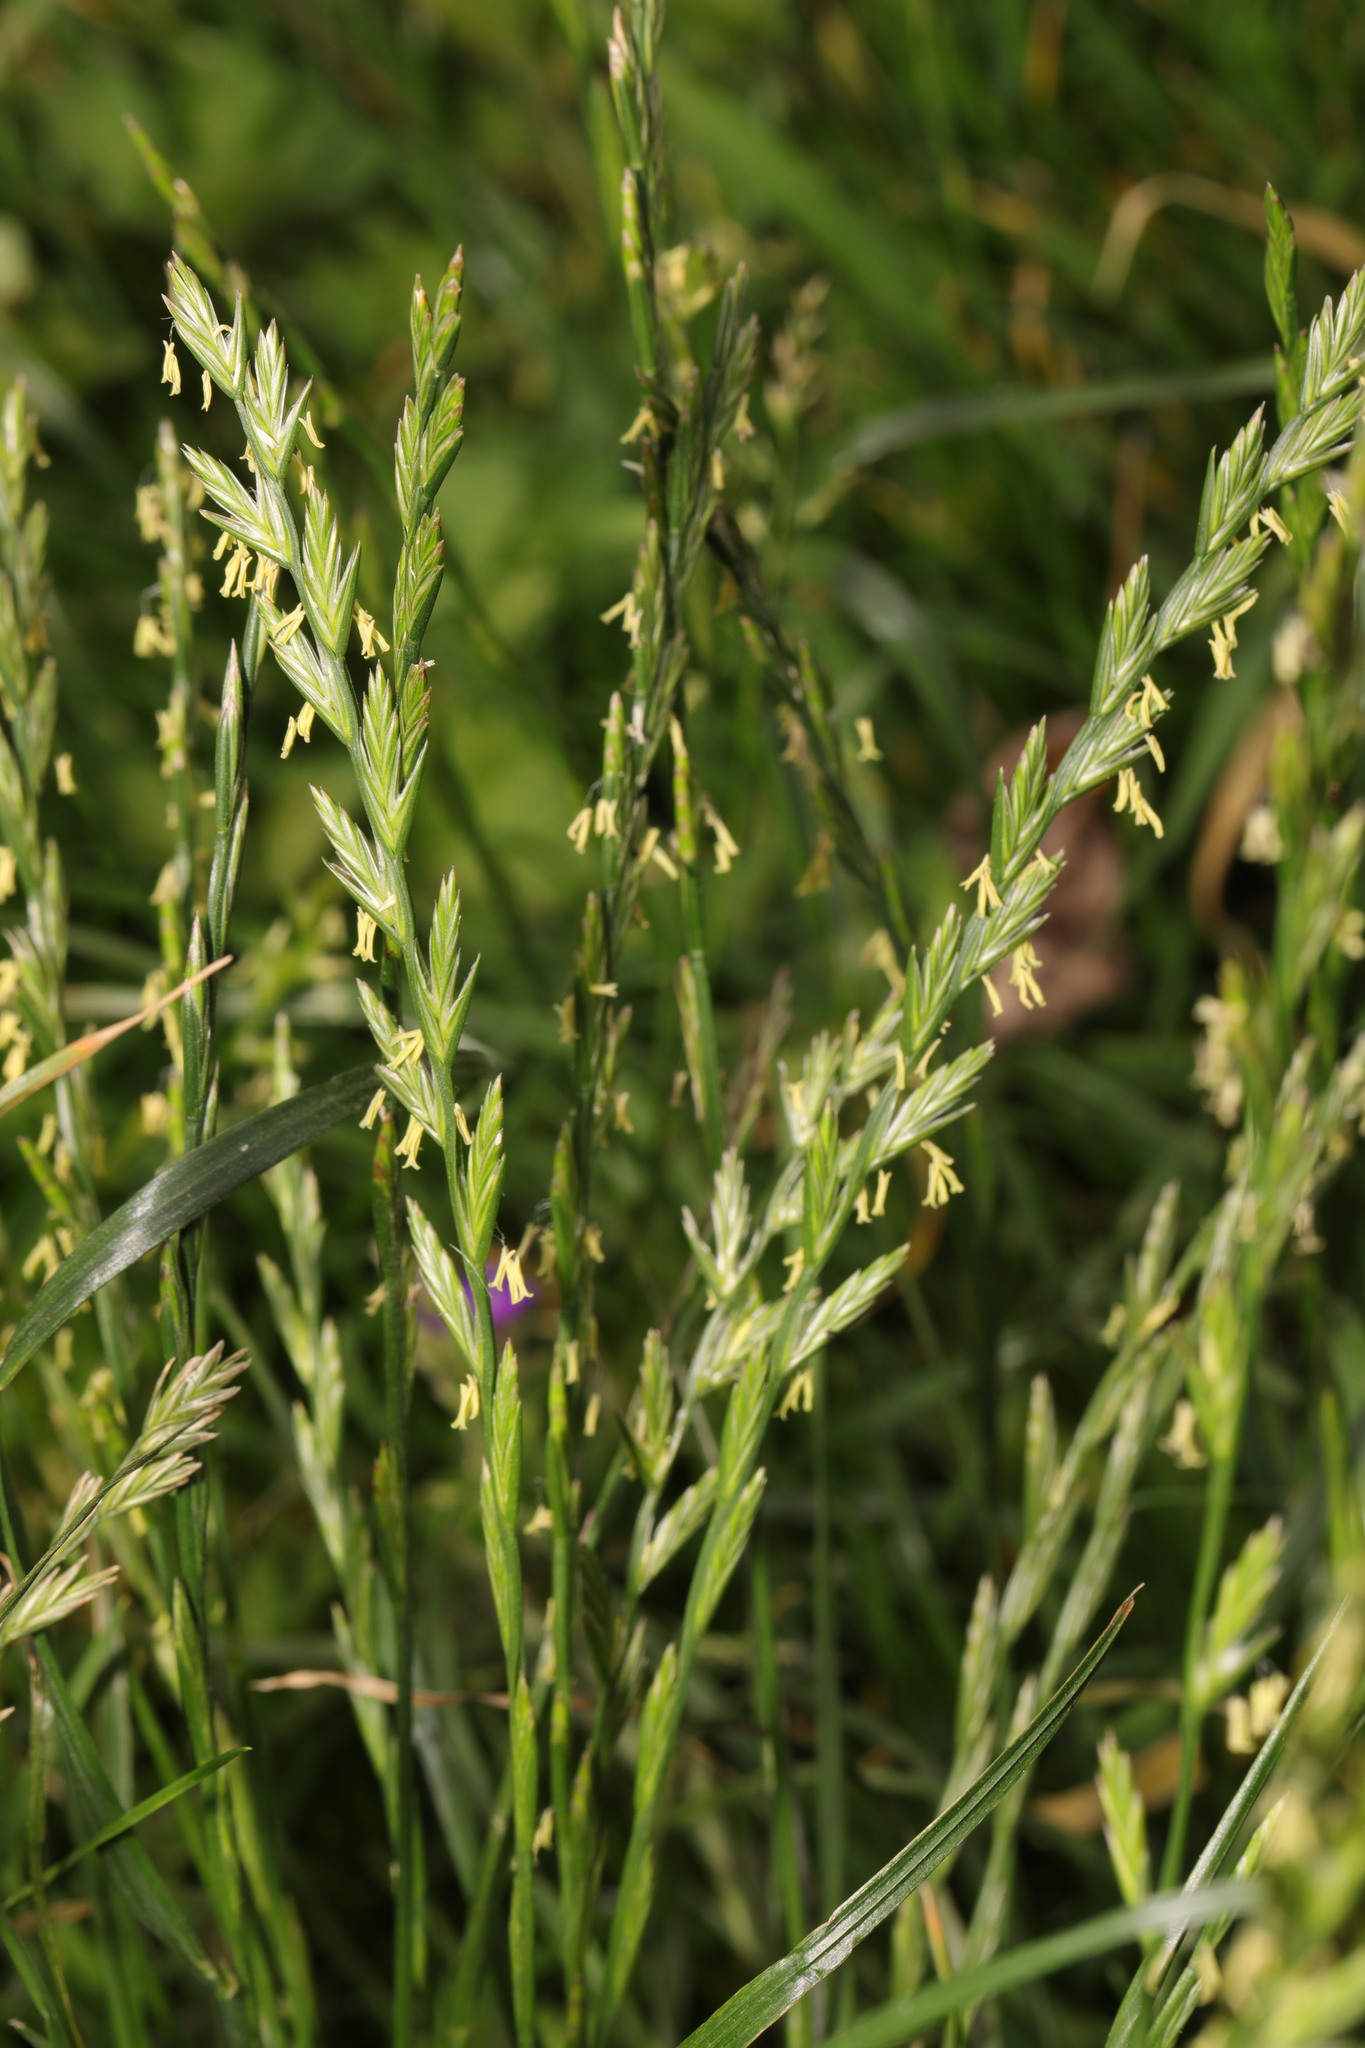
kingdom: Plantae
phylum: Tracheophyta
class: Liliopsida
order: Poales
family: Poaceae
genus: Lolium
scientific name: Lolium perenne
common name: Perennial ryegrass
